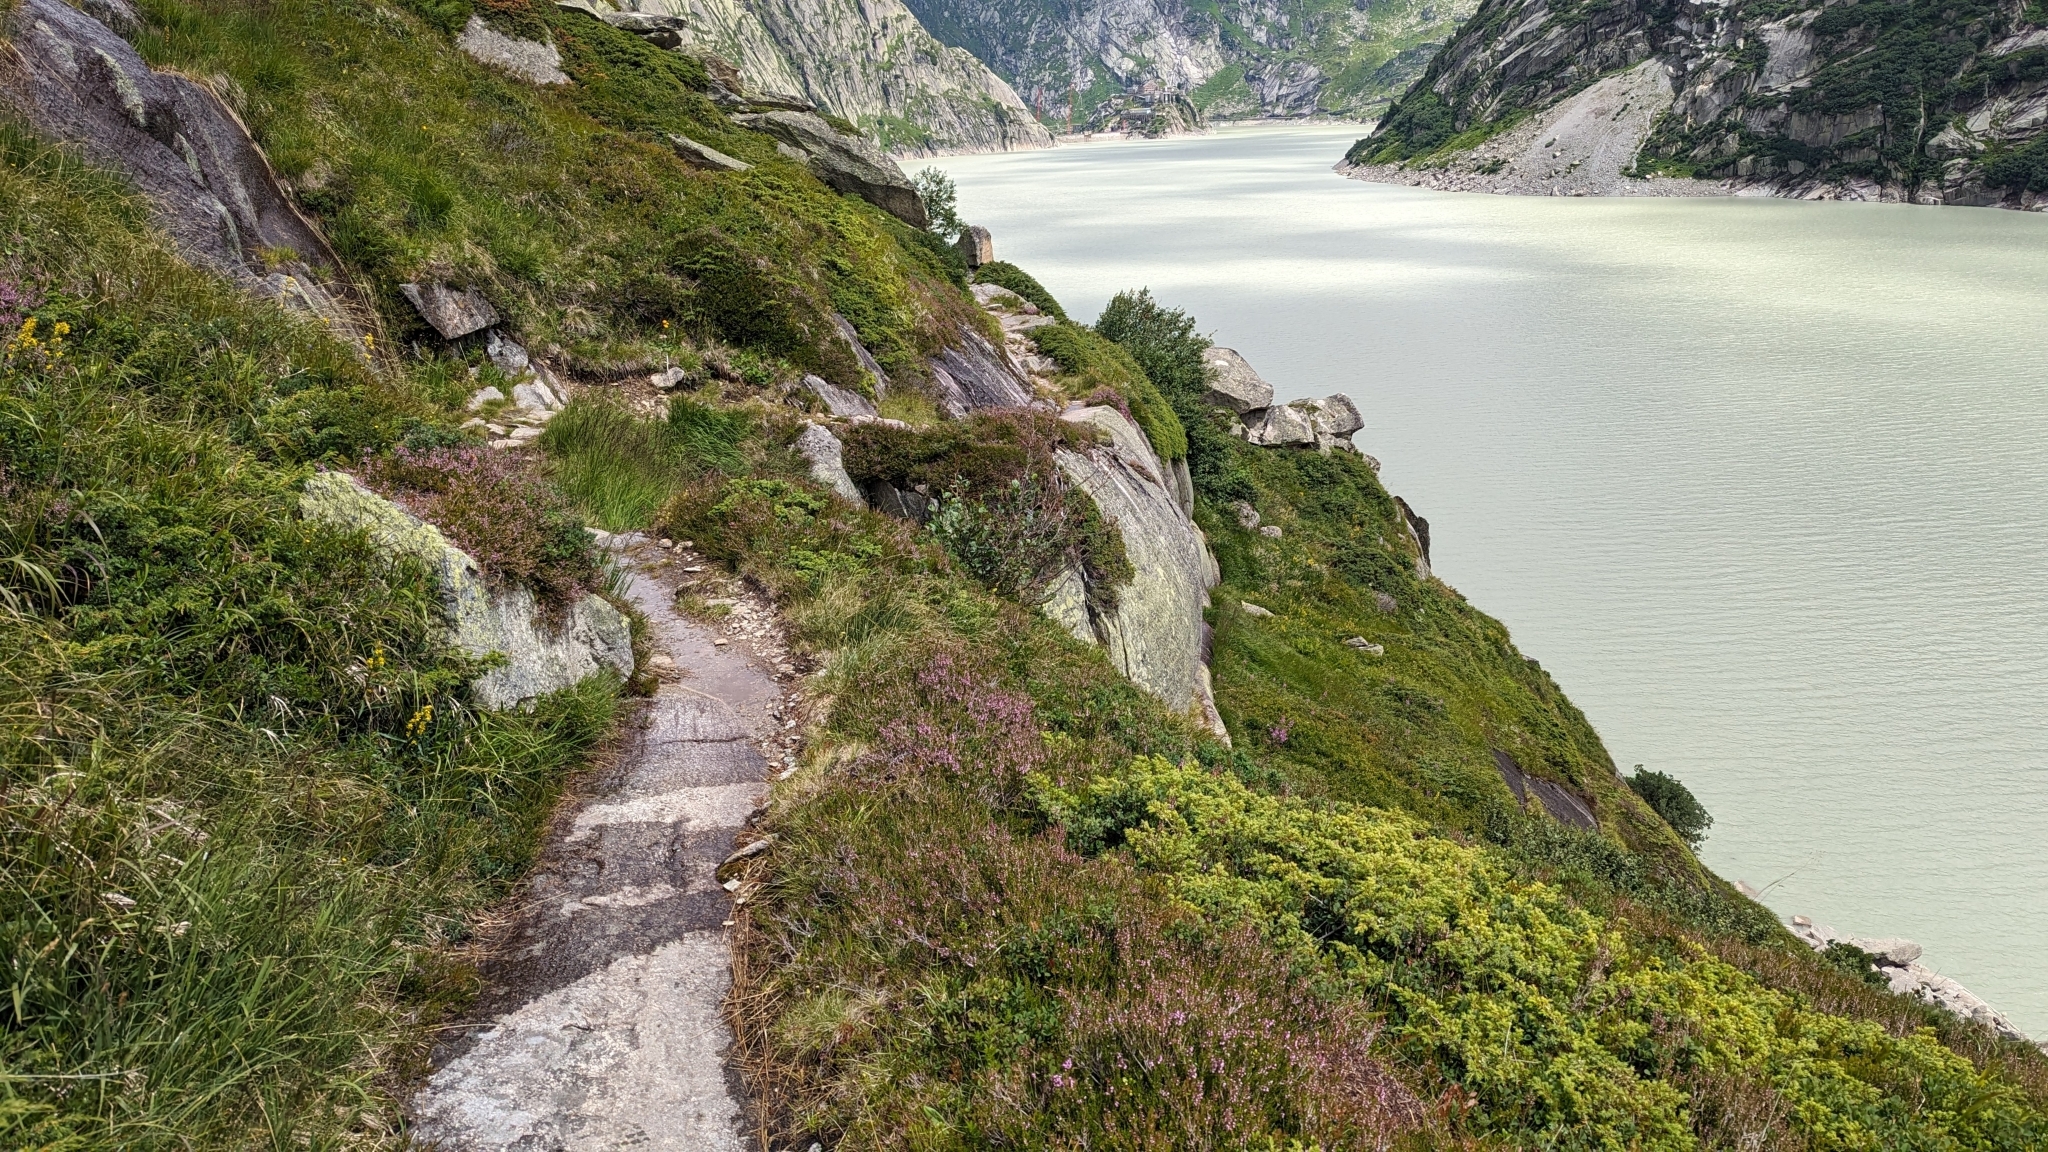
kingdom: Animalia
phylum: Arthropoda
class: Insecta
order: Hymenoptera
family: Formicidae
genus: Formica
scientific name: Formica
